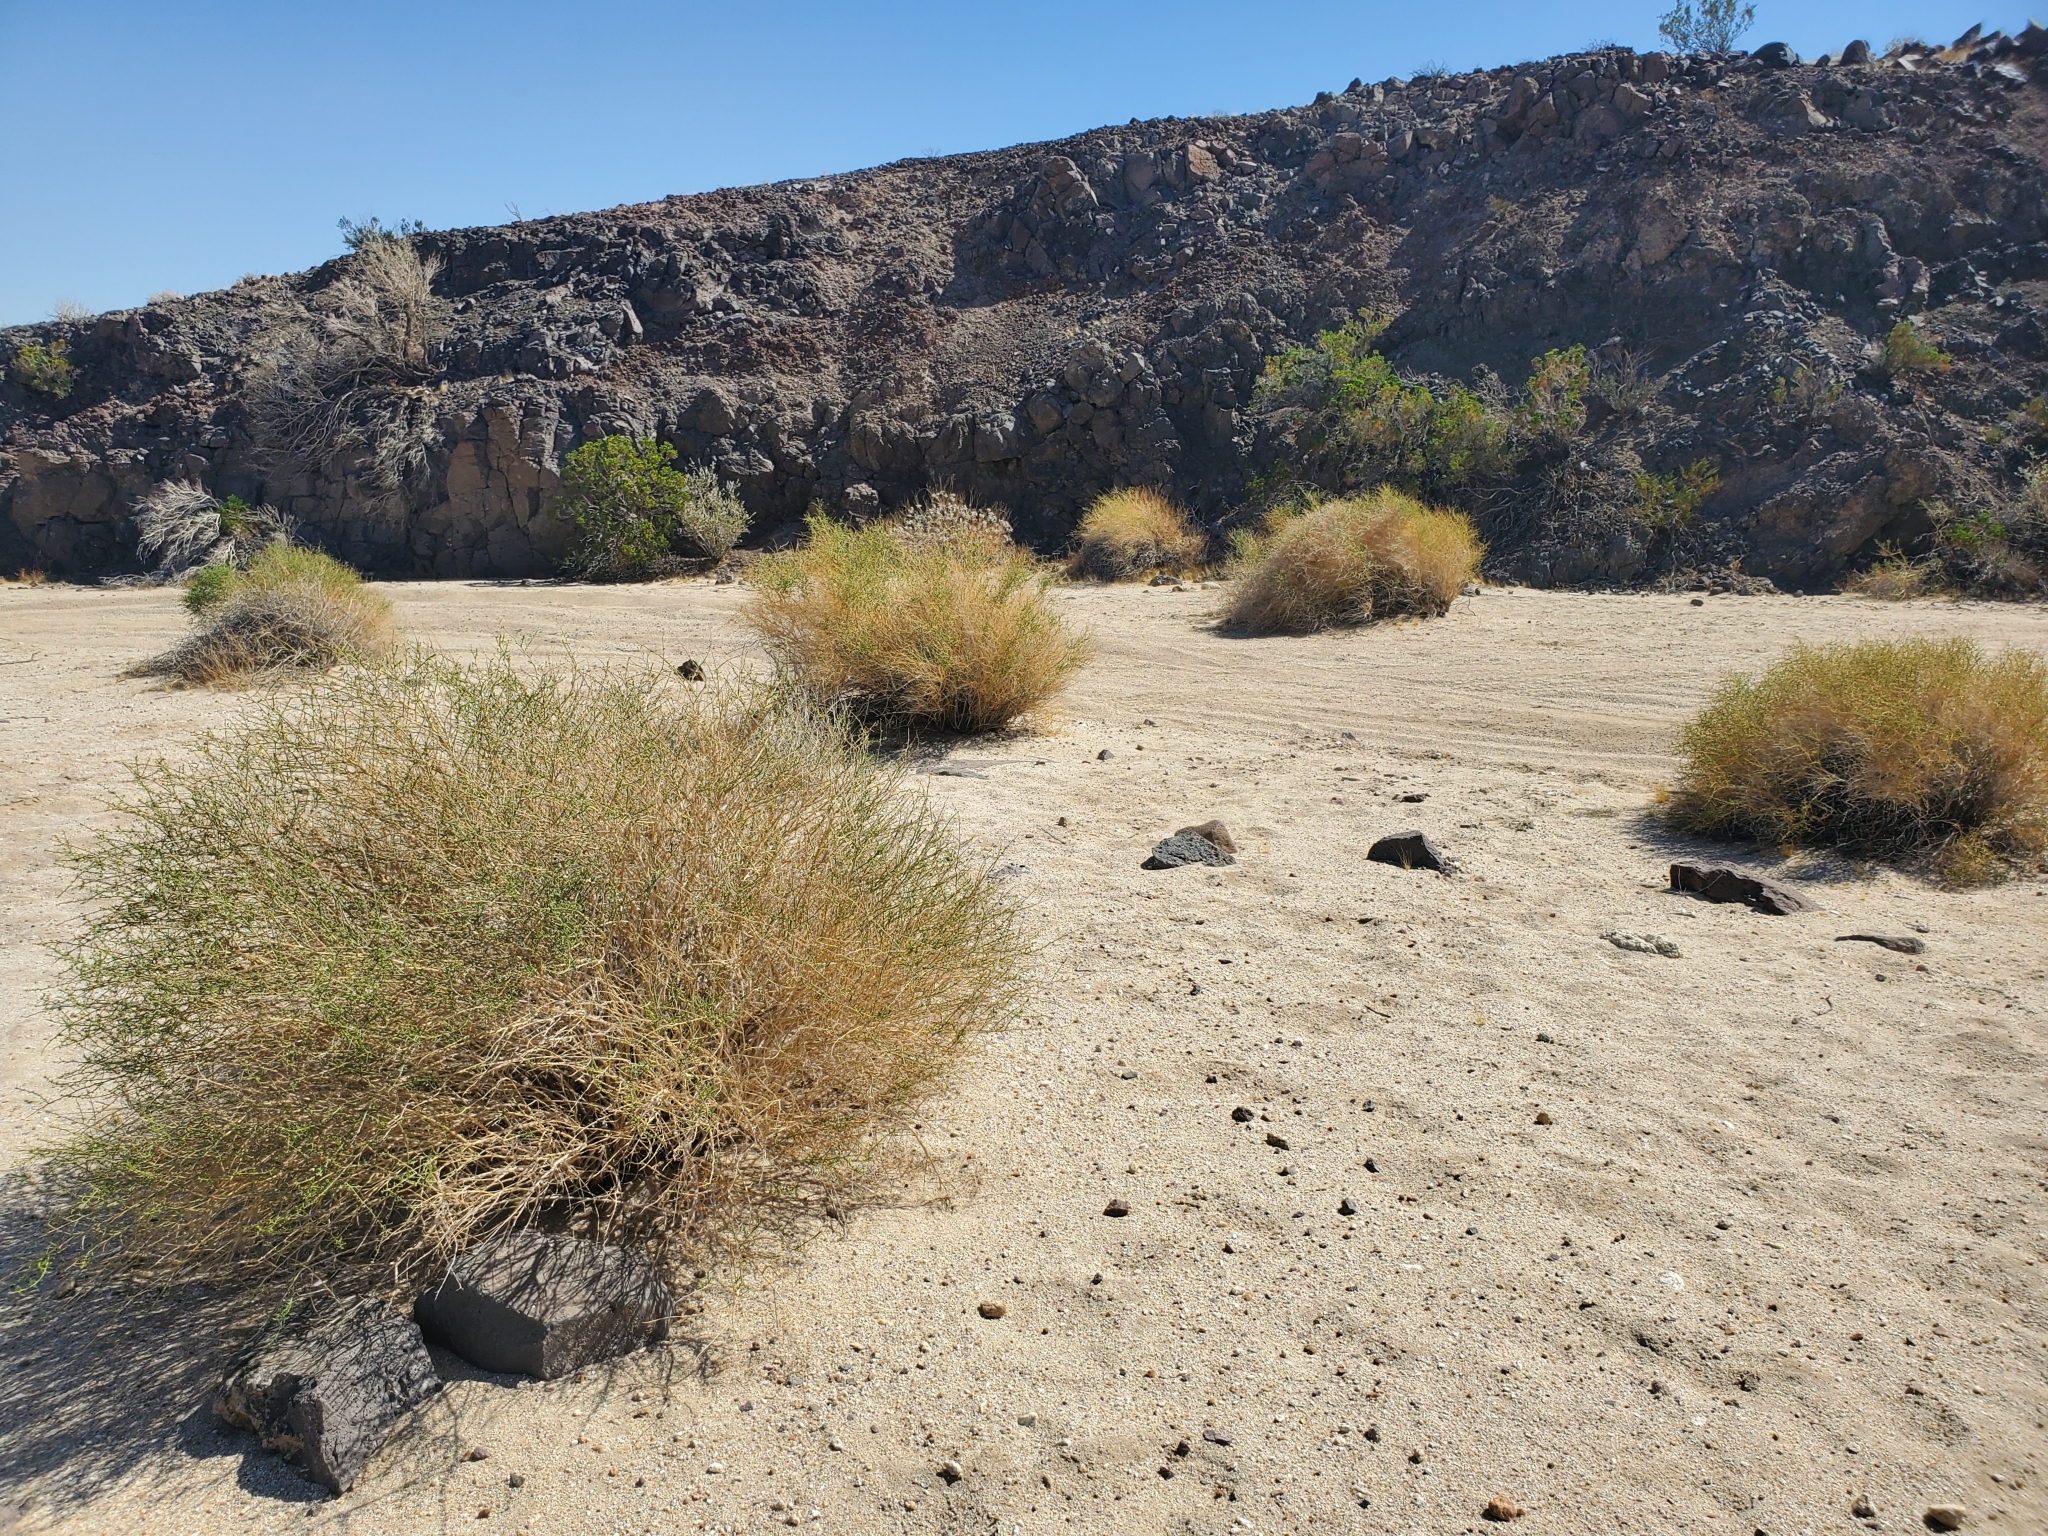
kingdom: Plantae
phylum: Tracheophyta
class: Magnoliopsida
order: Asterales
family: Asteraceae
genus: Ambrosia
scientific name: Ambrosia salsola
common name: Burrobrush
